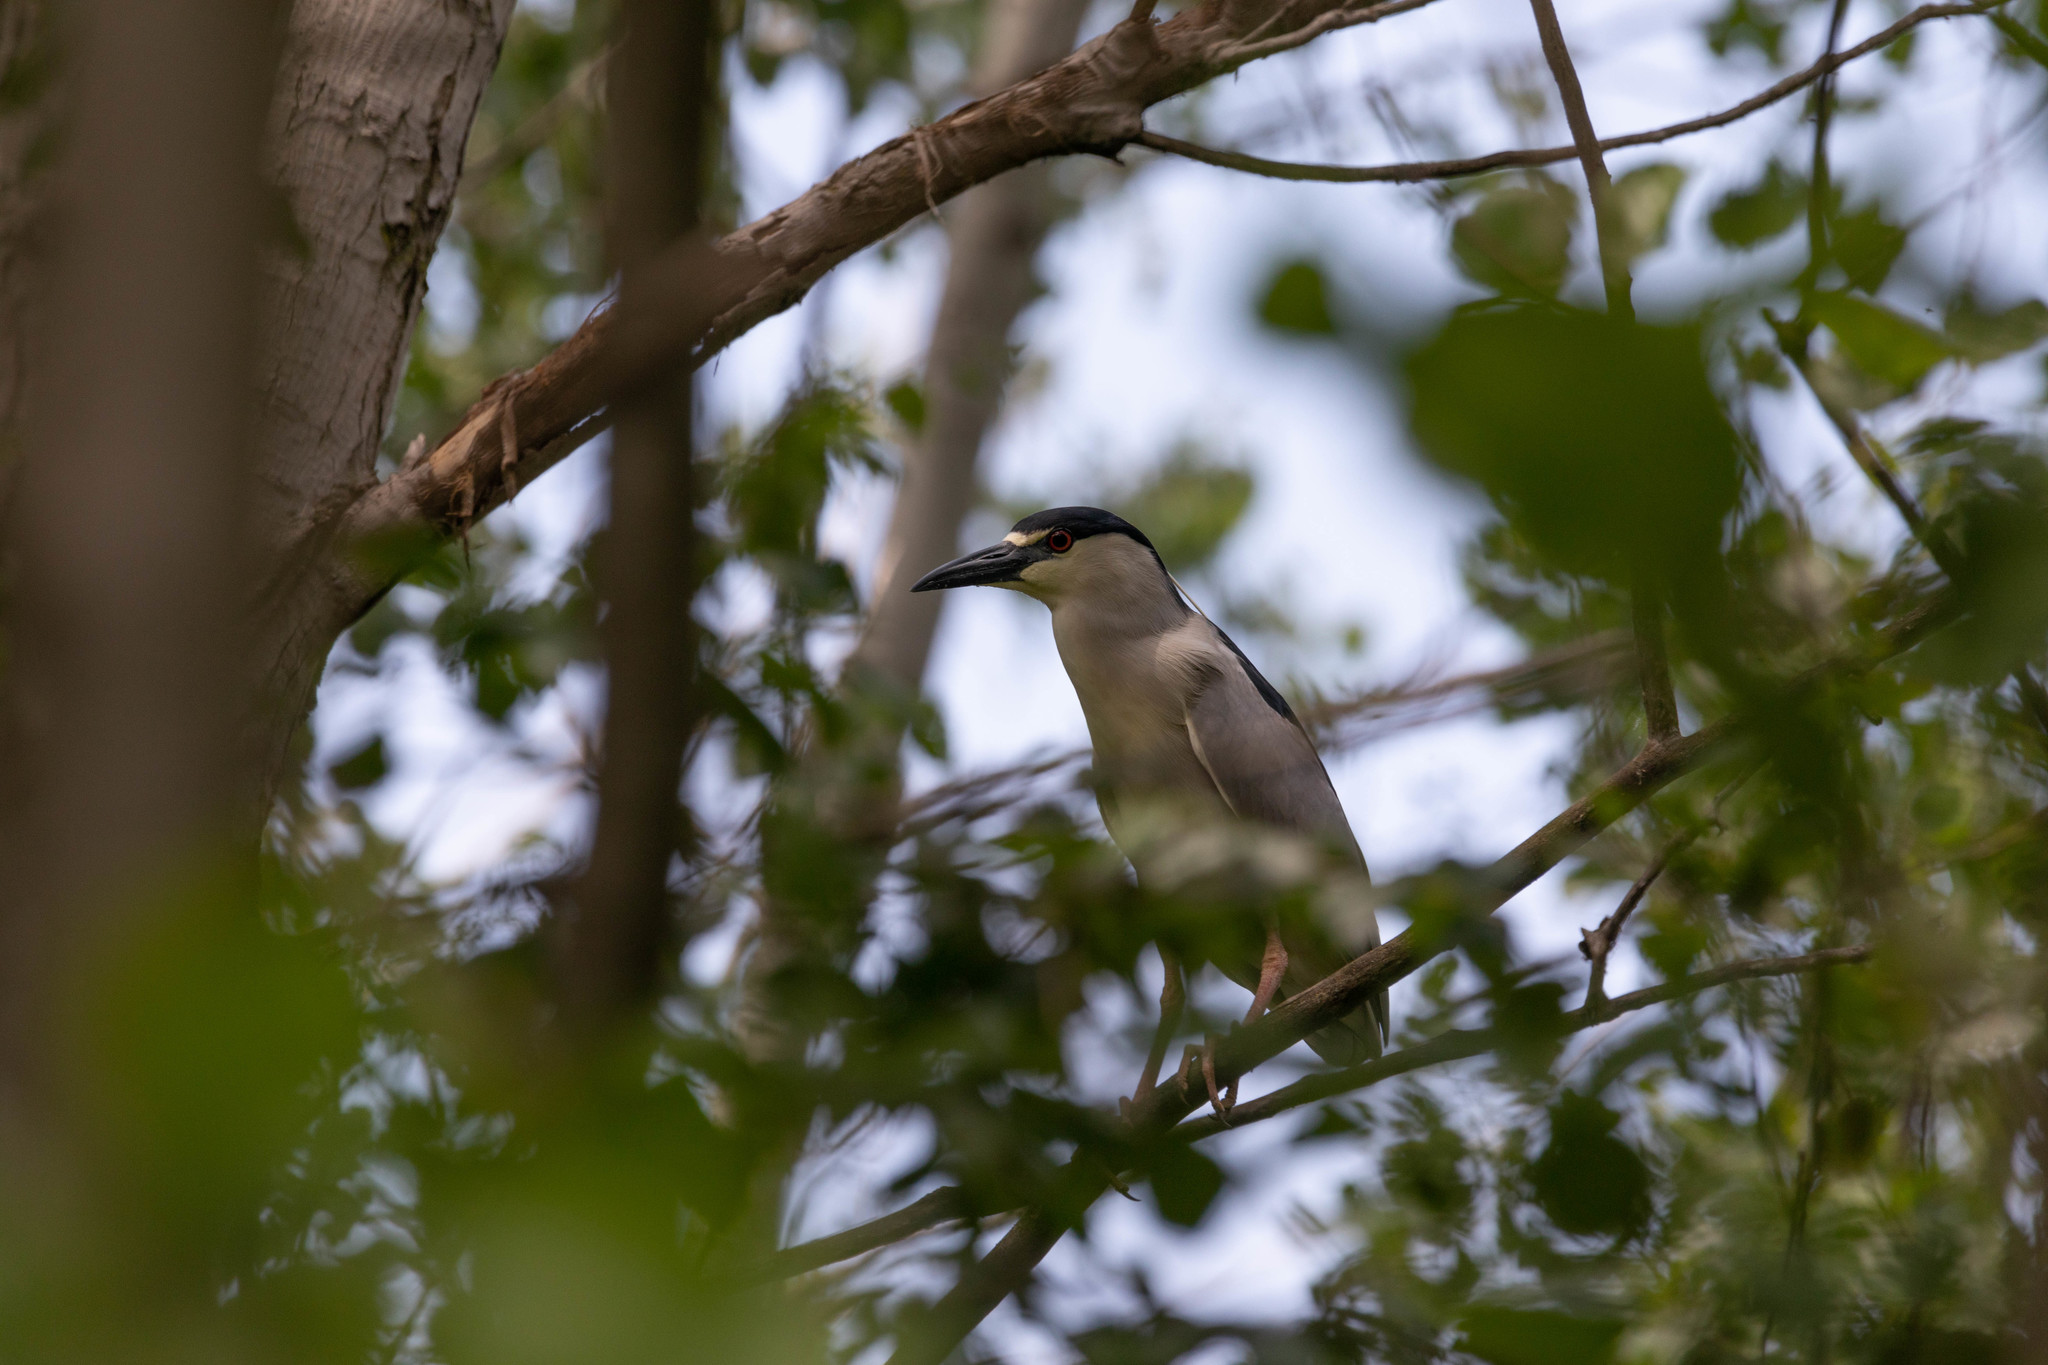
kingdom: Animalia
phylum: Chordata
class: Aves
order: Pelecaniformes
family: Ardeidae
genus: Nycticorax
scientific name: Nycticorax nycticorax
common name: Black-crowned night heron
